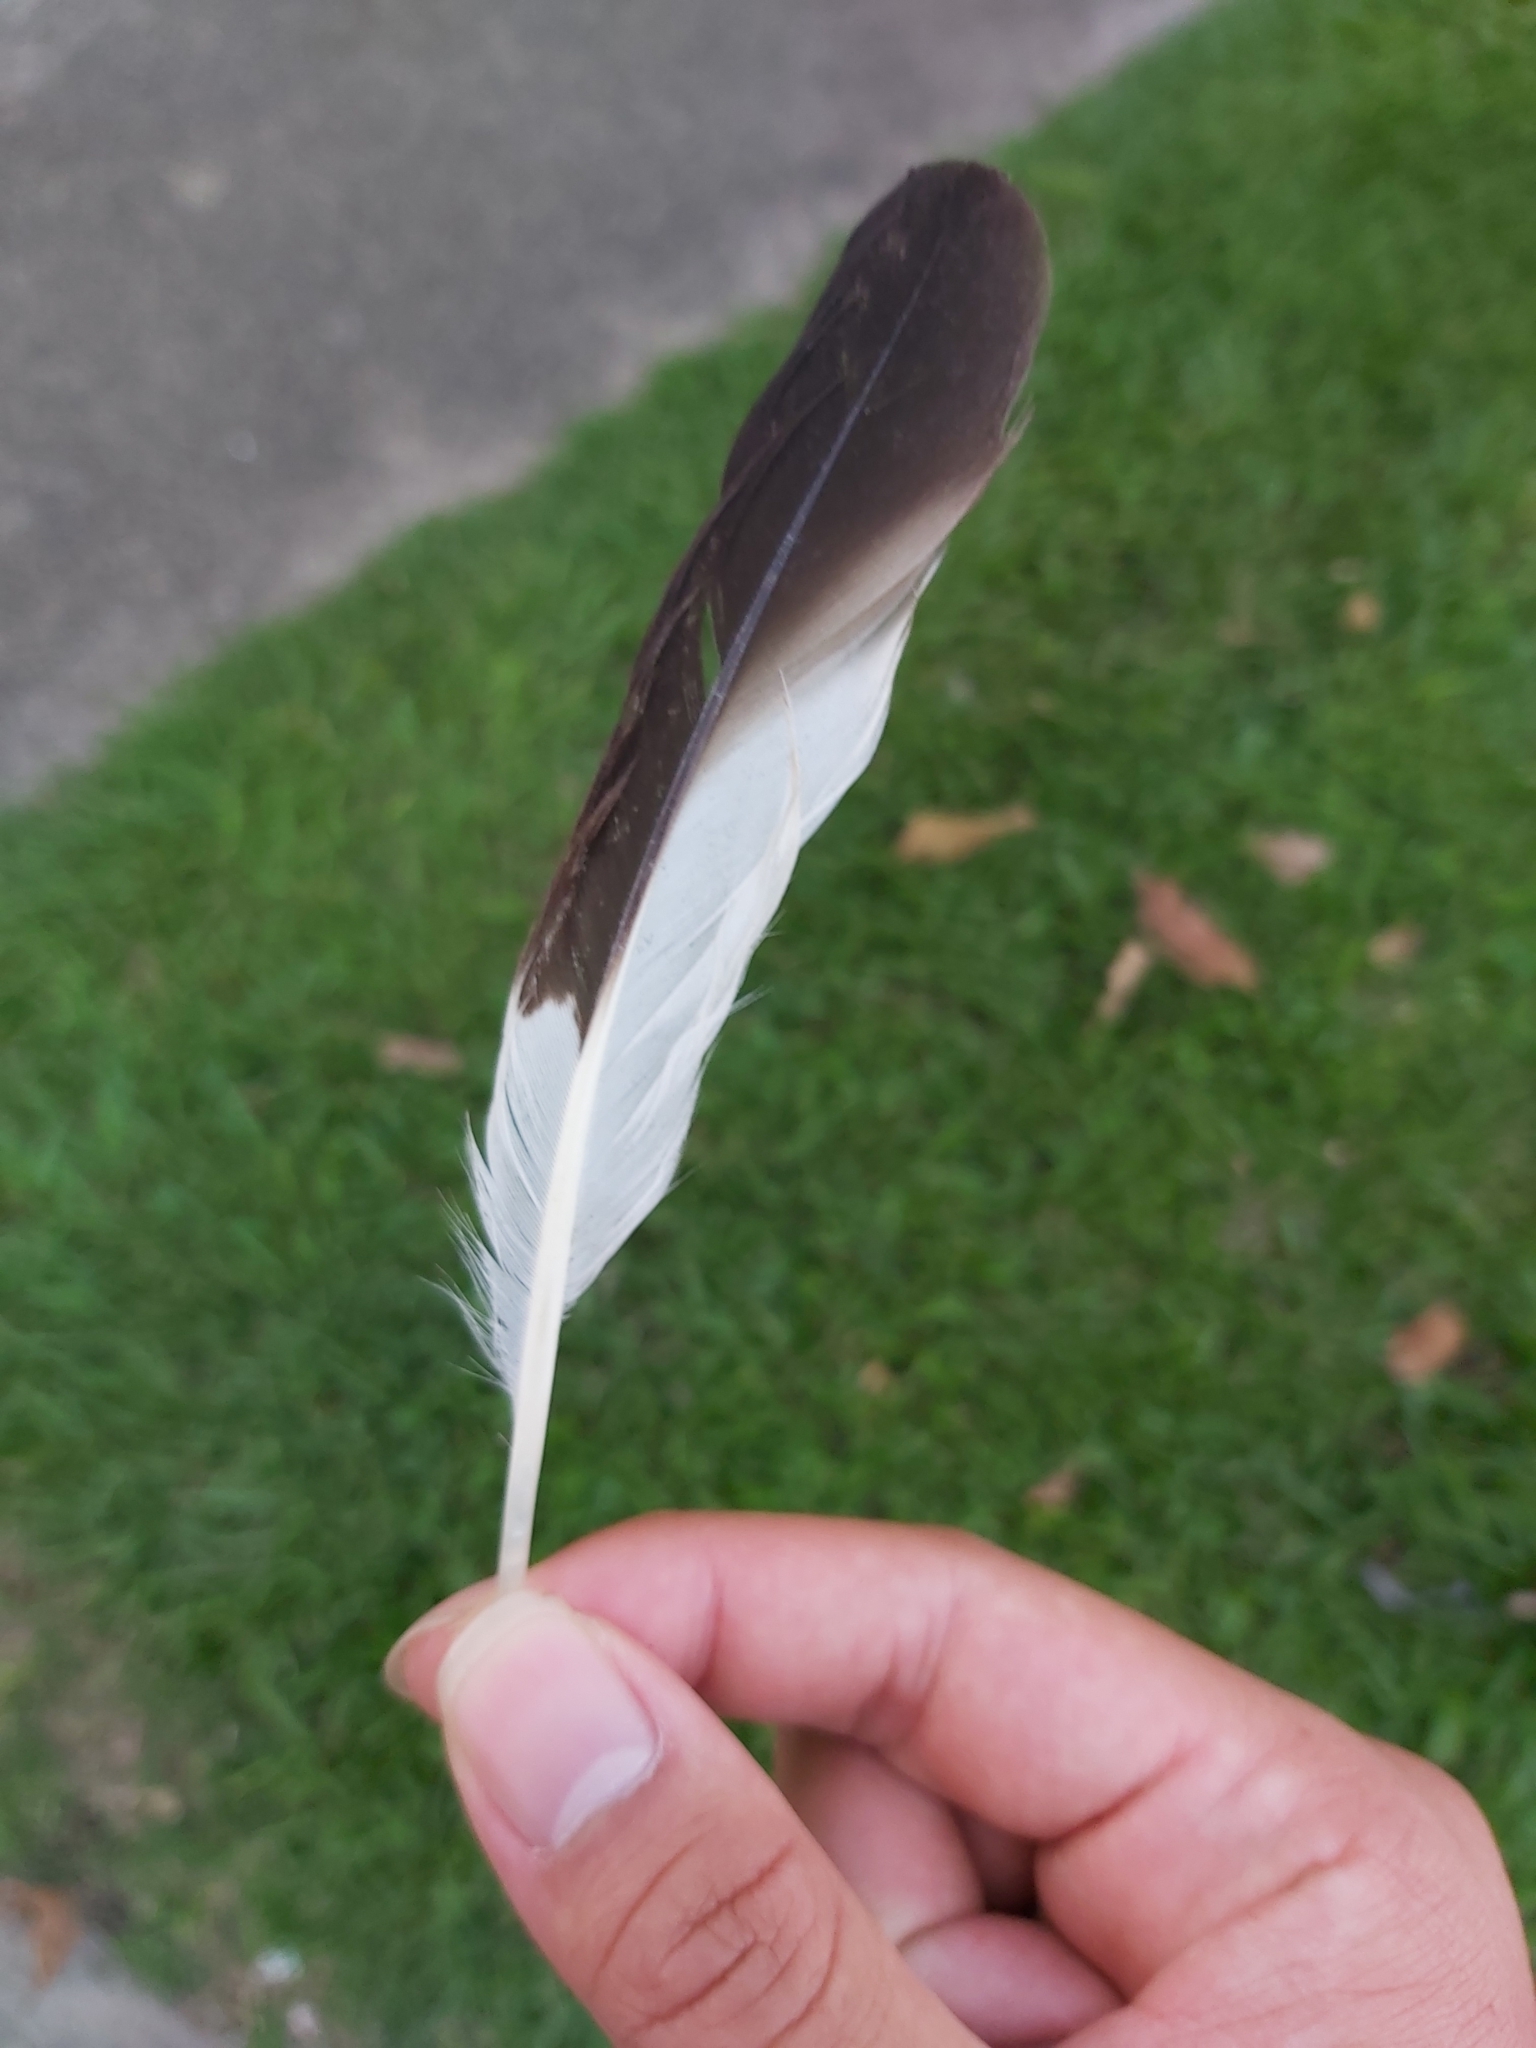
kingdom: Animalia
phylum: Chordata
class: Aves
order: Charadriiformes
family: Charadriidae
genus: Vanellus
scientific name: Vanellus miles
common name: Masked lapwing
